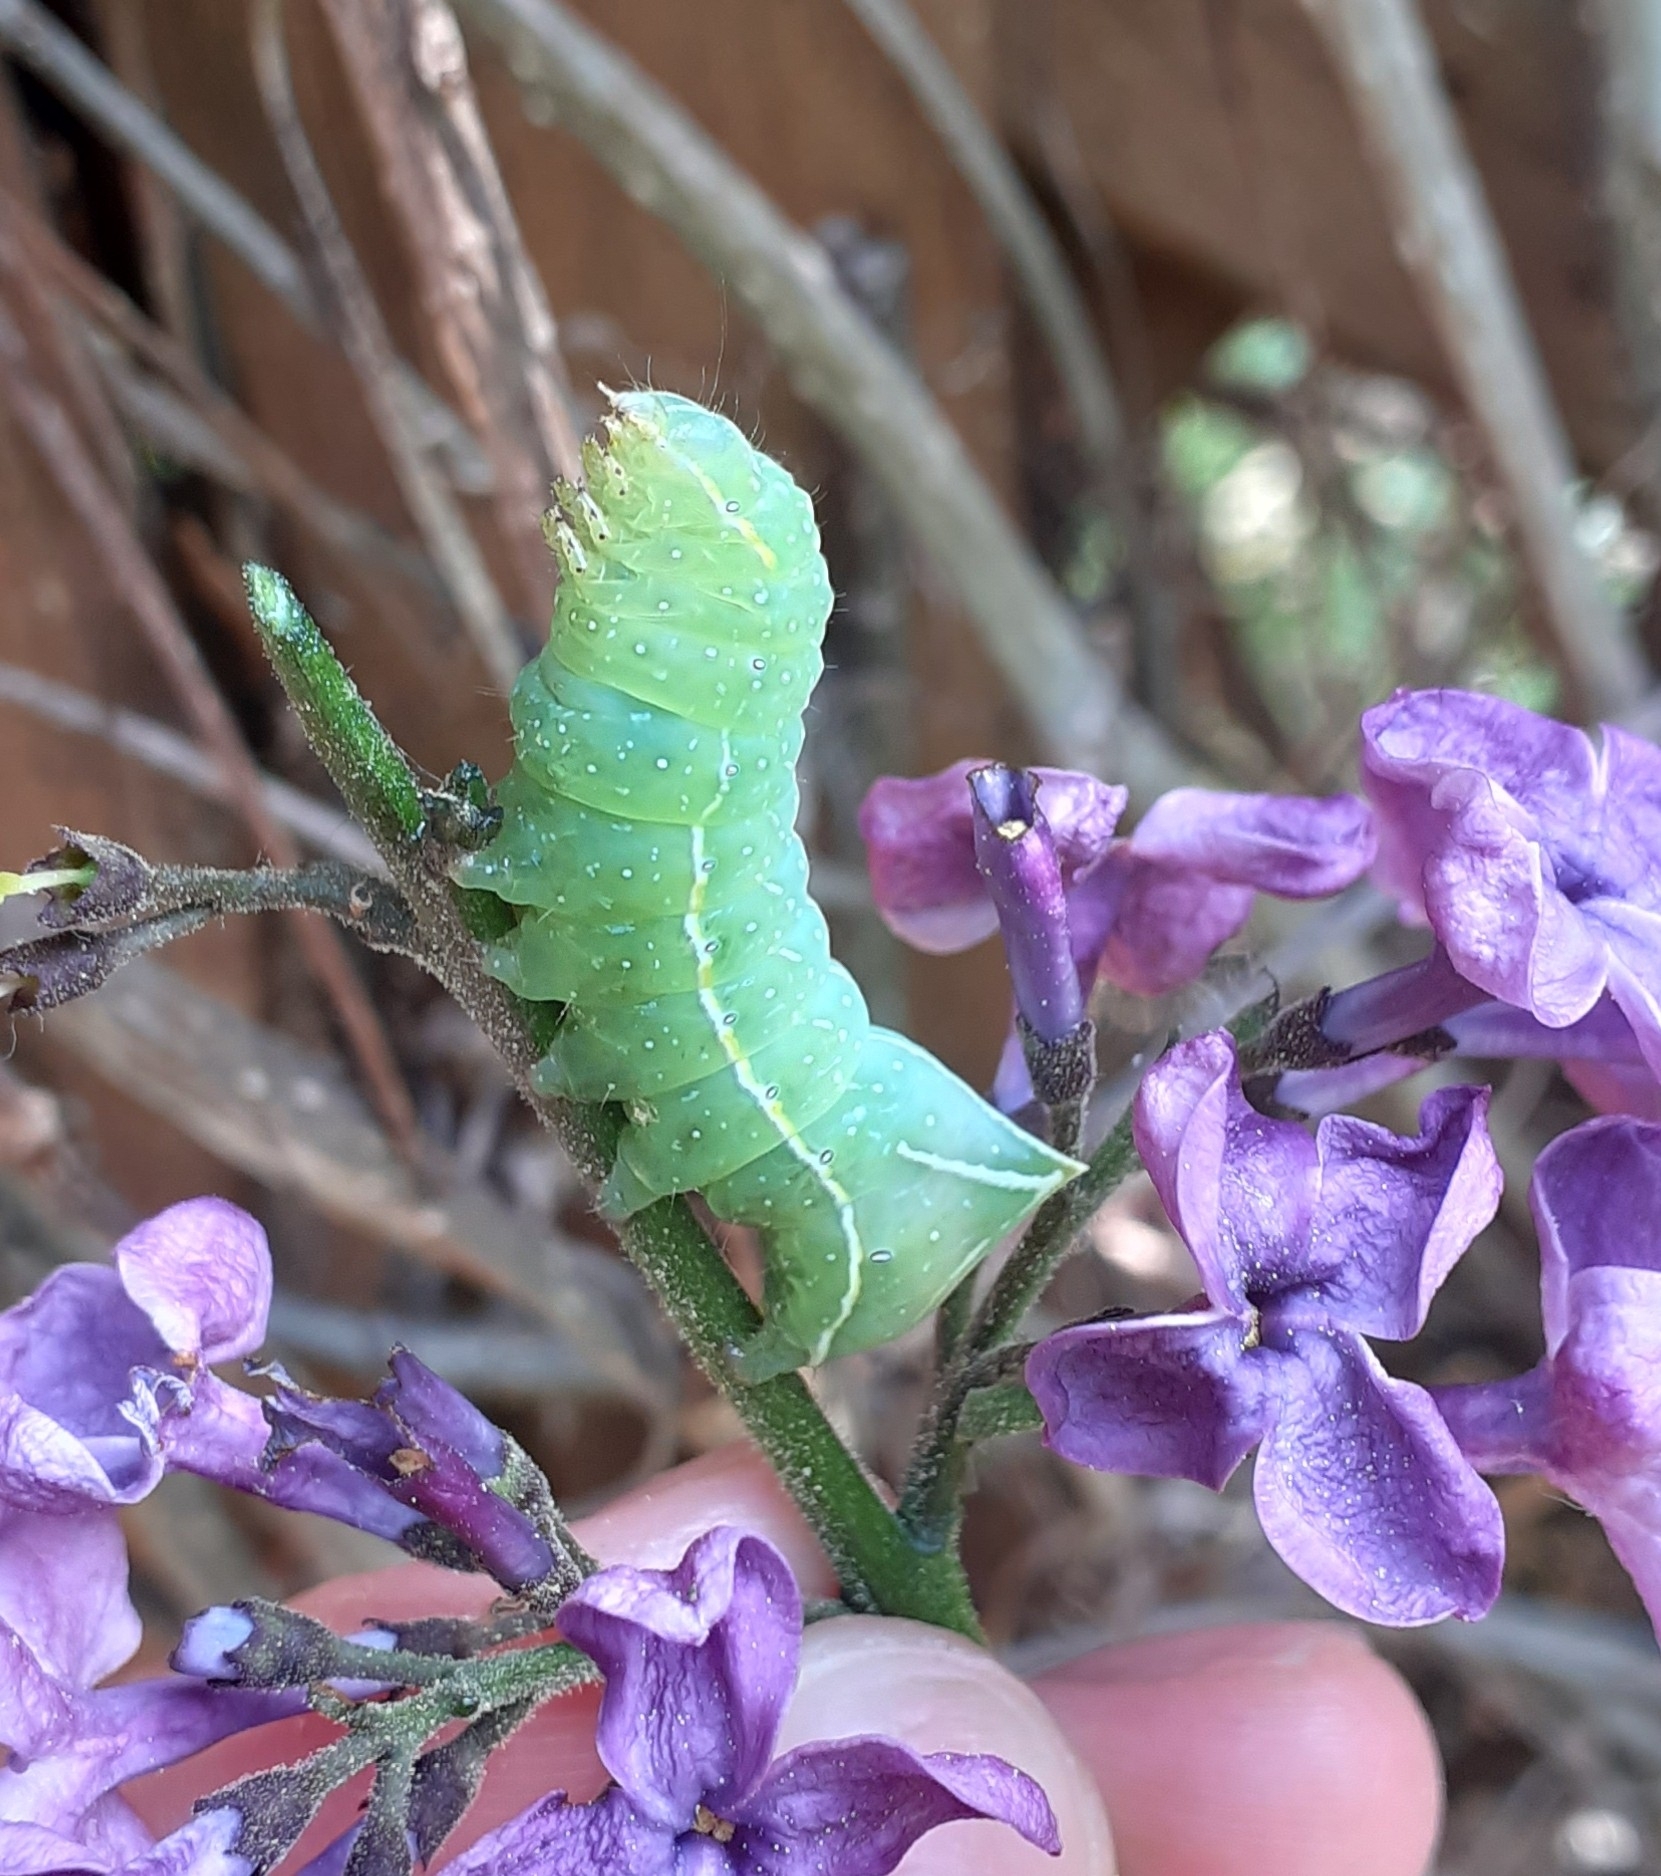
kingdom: Animalia
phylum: Arthropoda
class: Insecta
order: Lepidoptera
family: Noctuidae
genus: Amphipyra
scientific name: Amphipyra pyramidea
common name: Copper underwing
